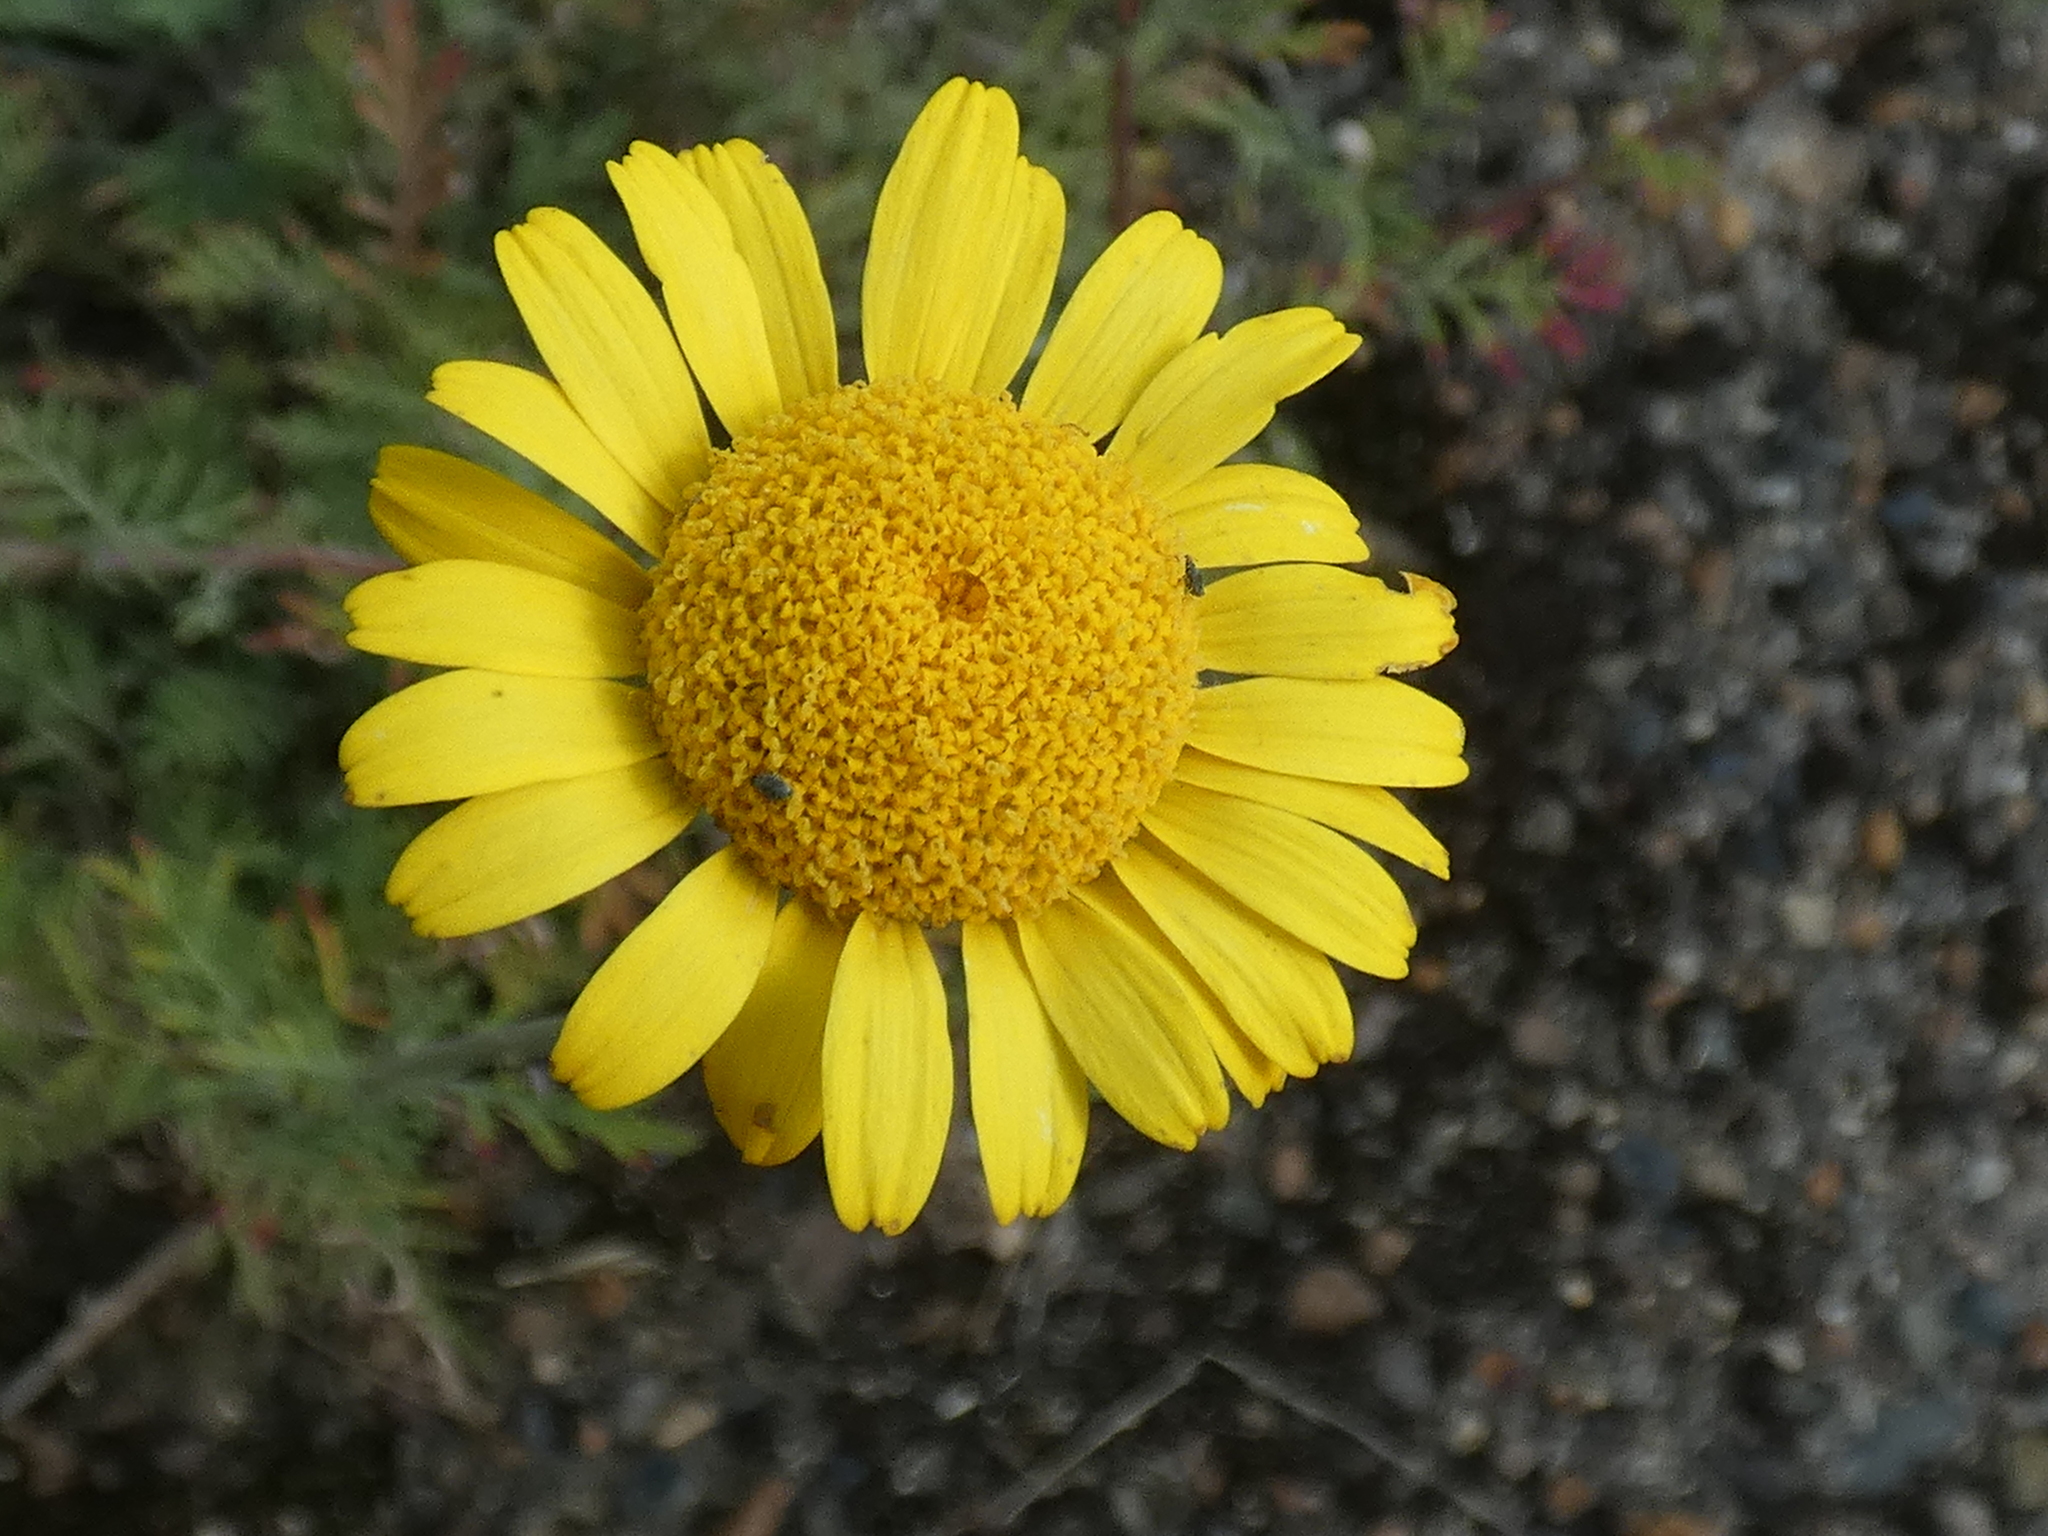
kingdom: Plantae
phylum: Tracheophyta
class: Magnoliopsida
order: Asterales
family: Asteraceae
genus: Cota
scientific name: Cota tinctoria
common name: Golden chamomile
